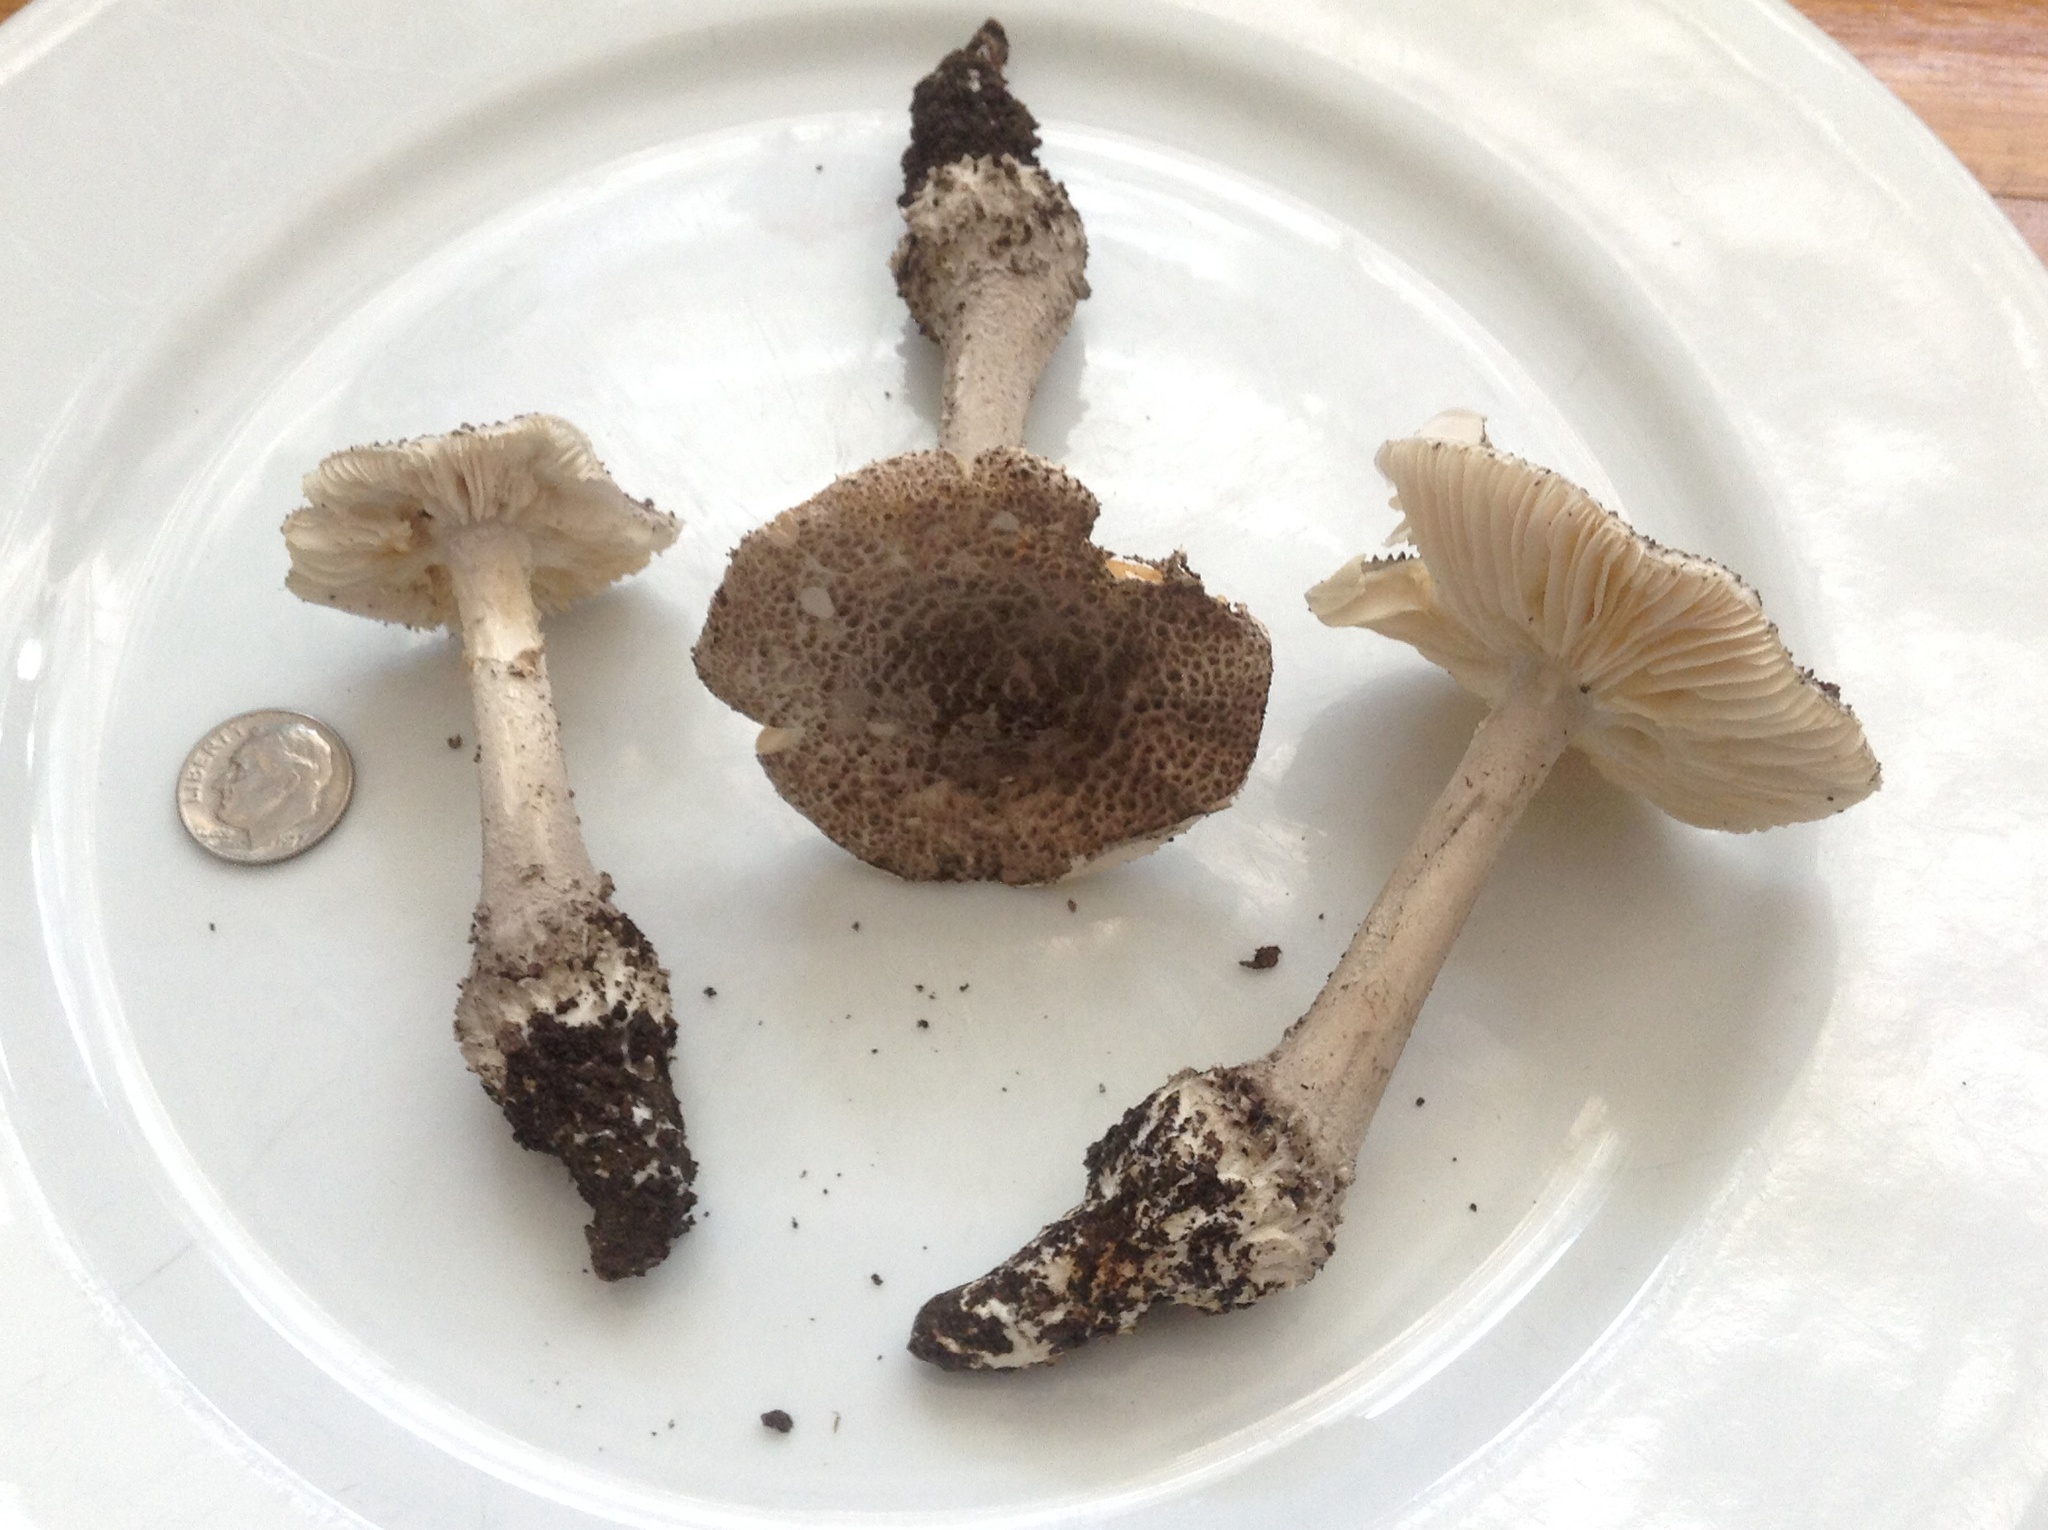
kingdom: Fungi
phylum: Basidiomycota
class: Agaricomycetes
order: Agaricales
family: Amanitaceae
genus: Amanita
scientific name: Amanita onusta
